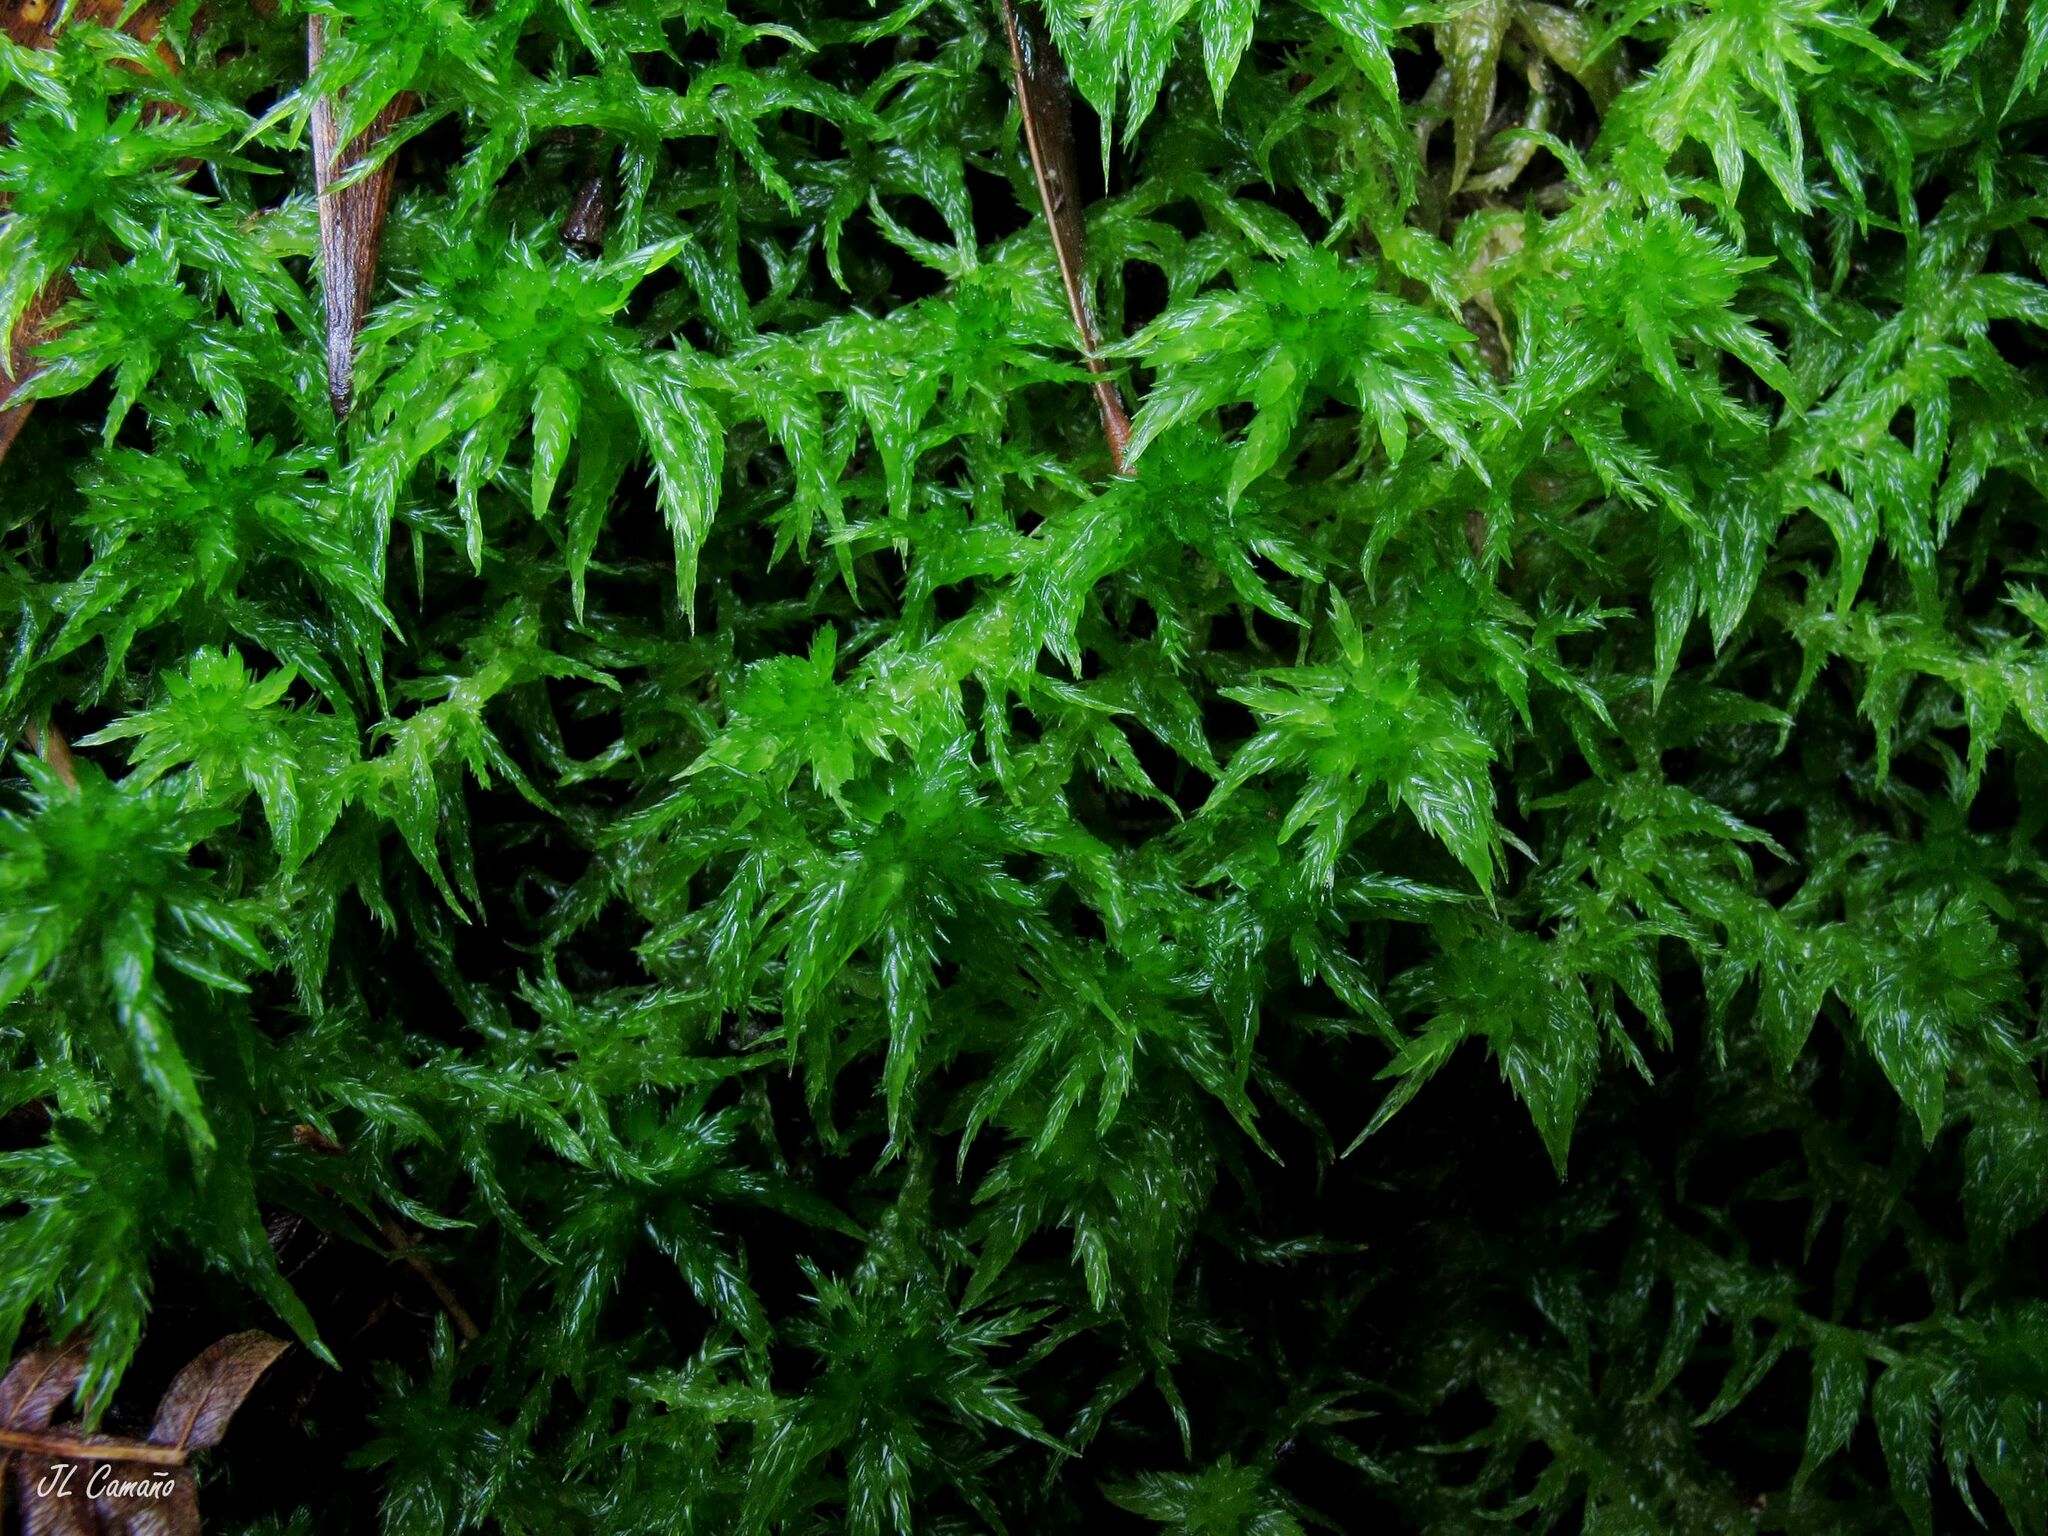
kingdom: Plantae
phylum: Bryophyta
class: Sphagnopsida
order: Sphagnales
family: Sphagnaceae
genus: Sphagnum
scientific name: Sphagnum inundatum
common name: Lesser cow-horn bog-moss
